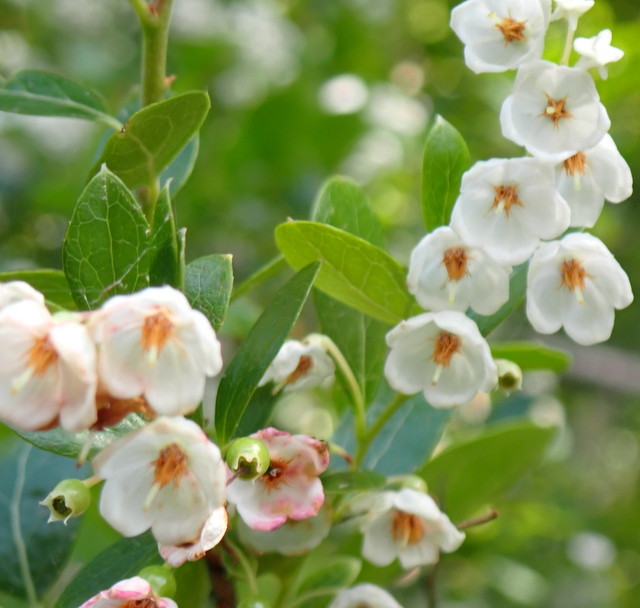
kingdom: Plantae
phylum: Tracheophyta
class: Magnoliopsida
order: Ericales
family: Ericaceae
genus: Vaccinium
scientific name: Vaccinium arboreum
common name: Farkleberry
